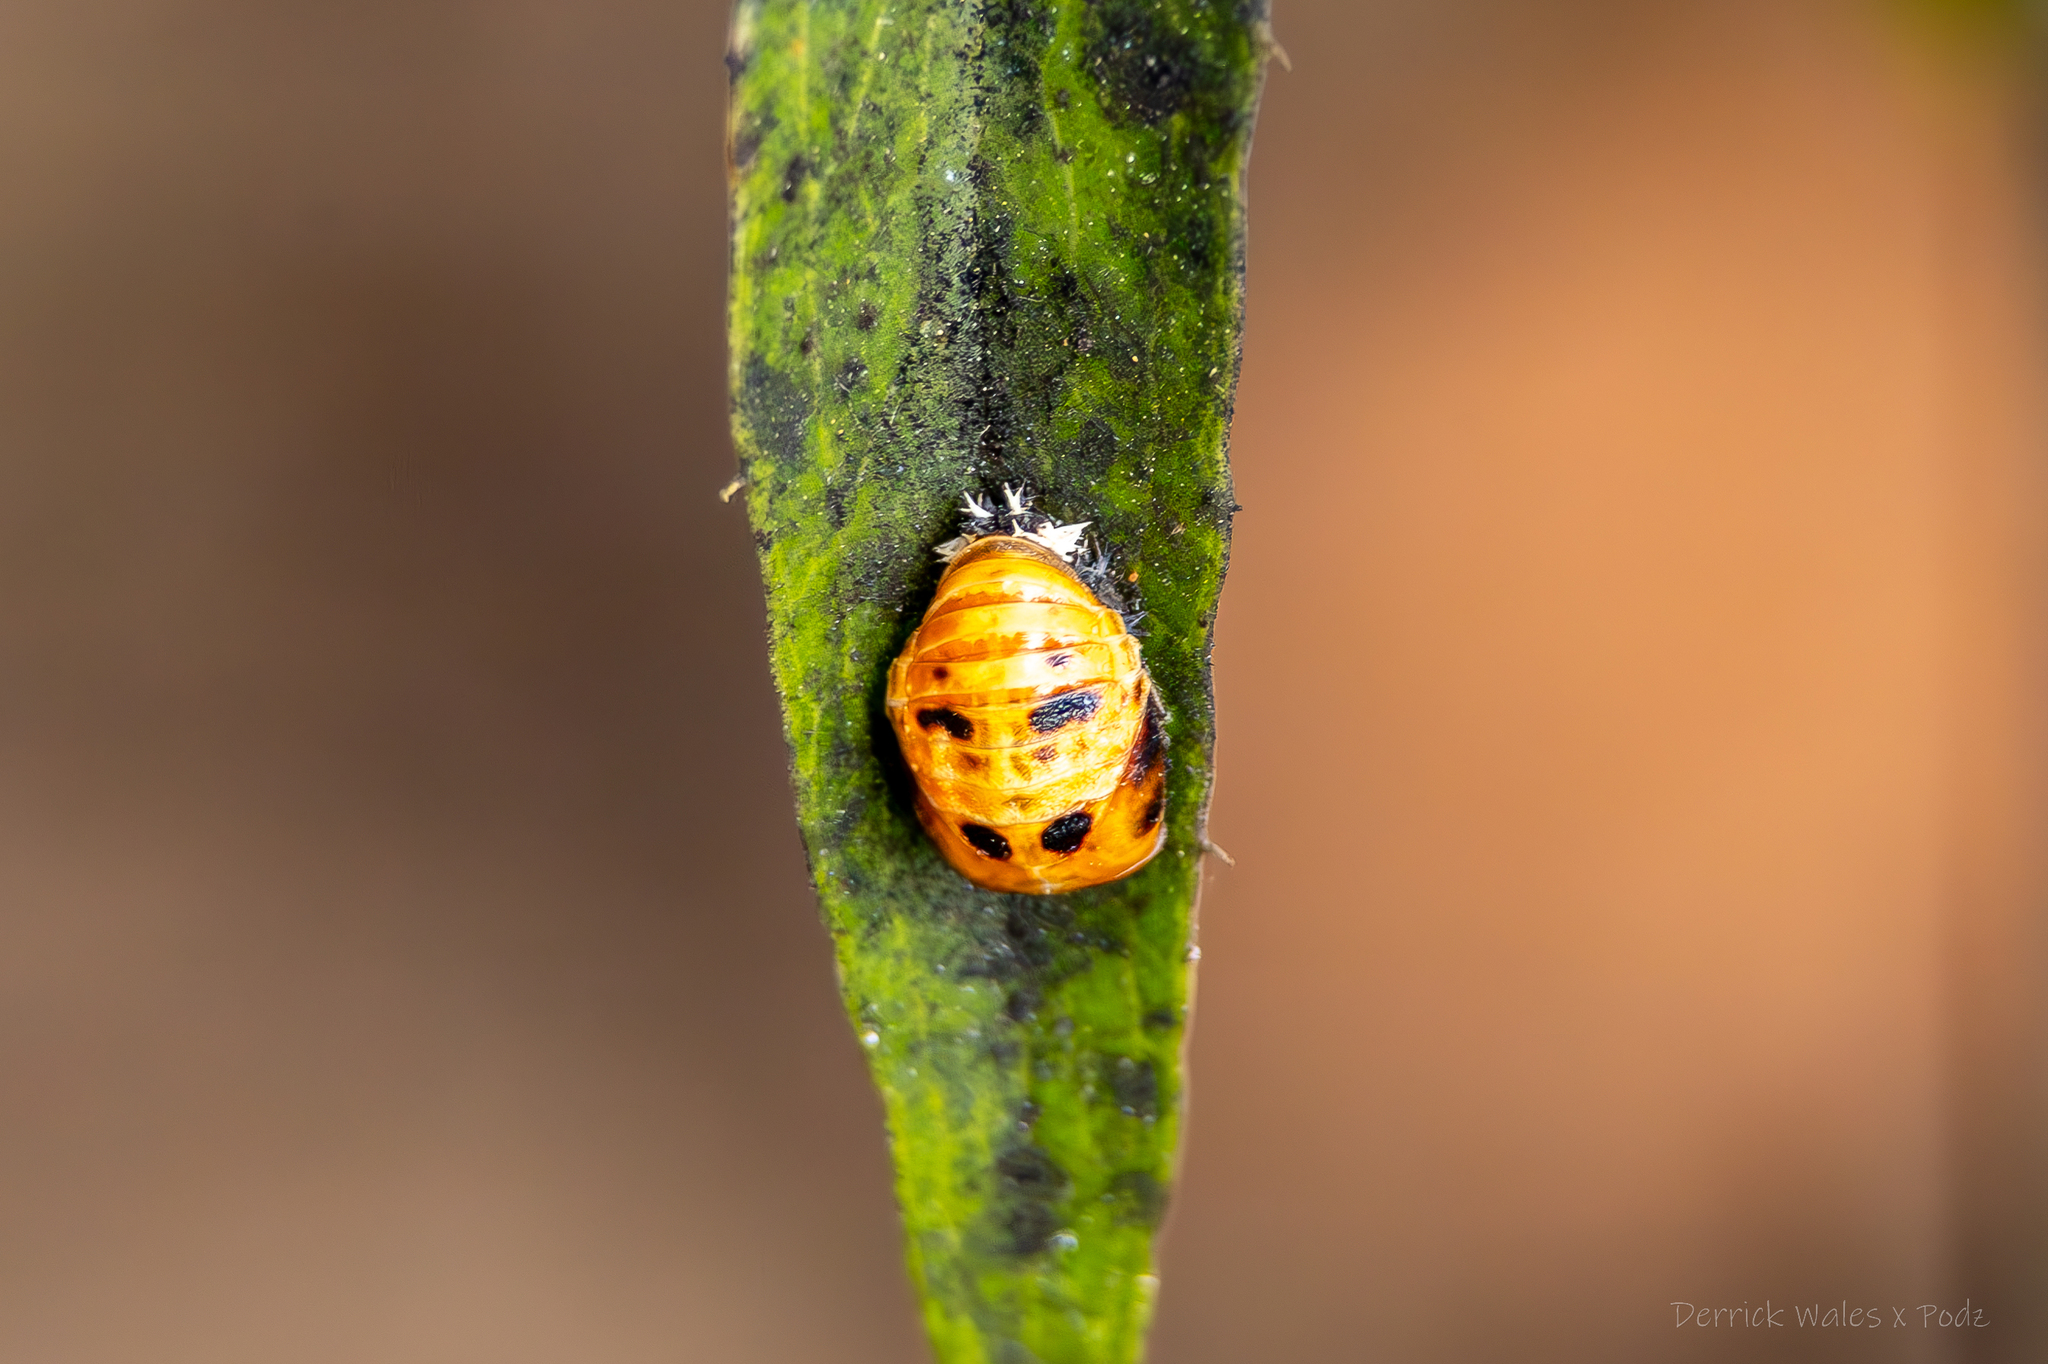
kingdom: Animalia
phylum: Arthropoda
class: Insecta
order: Coleoptera
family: Coccinellidae
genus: Harmonia
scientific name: Harmonia axyridis
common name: Harlequin ladybird
